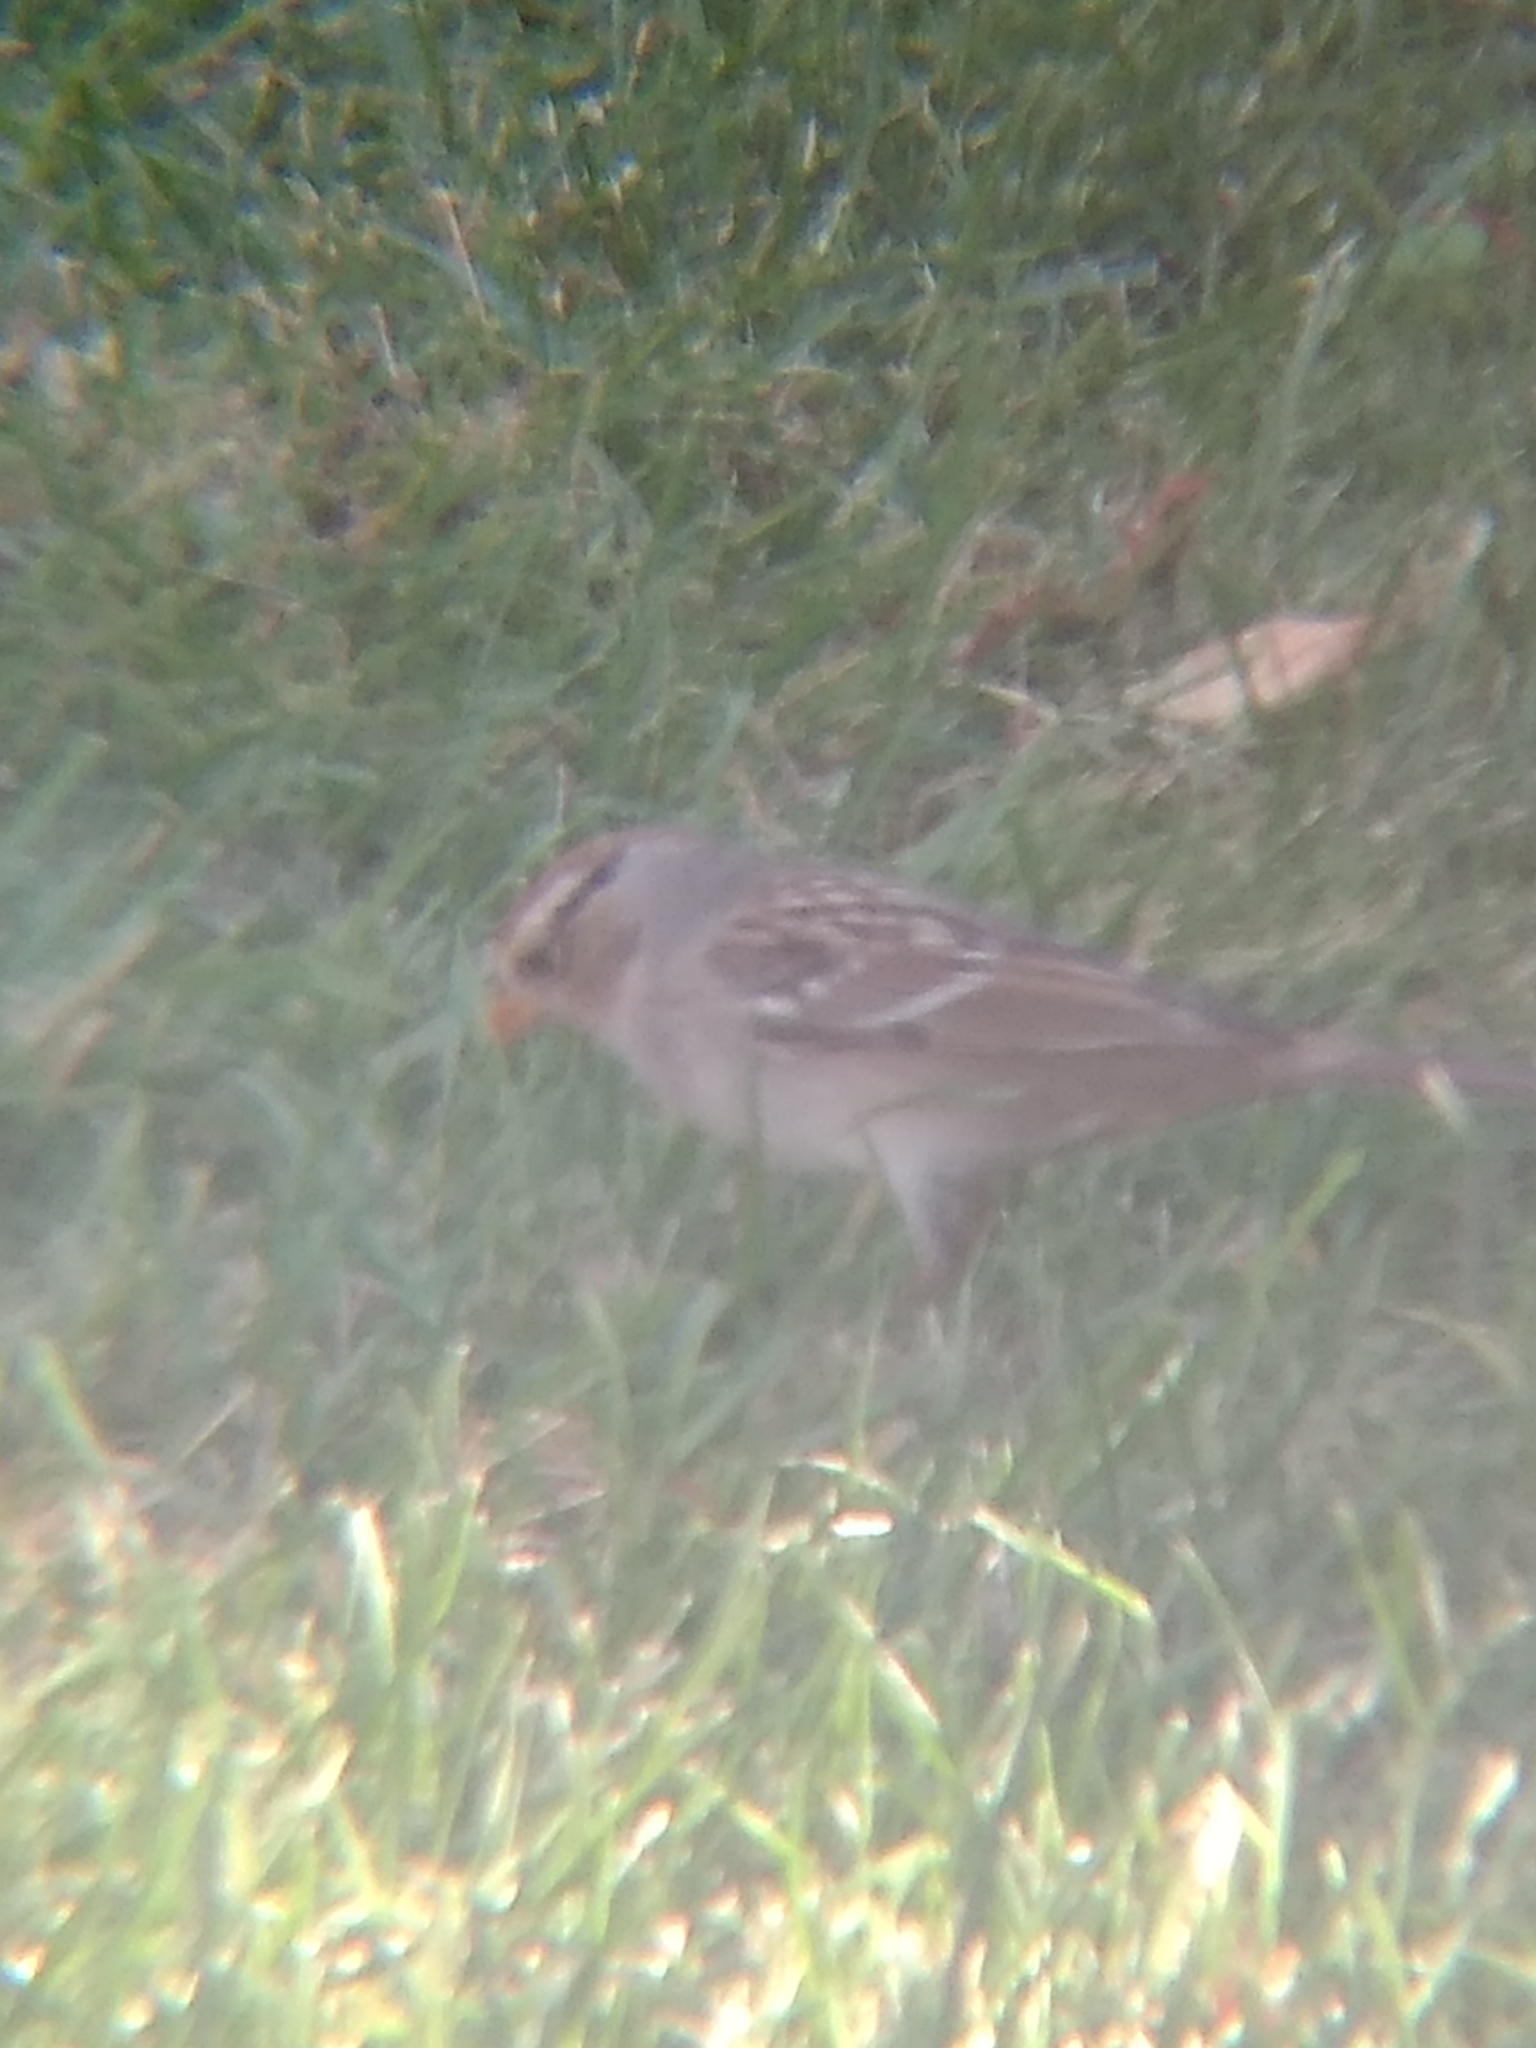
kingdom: Animalia
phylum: Chordata
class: Aves
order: Passeriformes
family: Passerellidae
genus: Zonotrichia
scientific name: Zonotrichia leucophrys
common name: White-crowned sparrow
